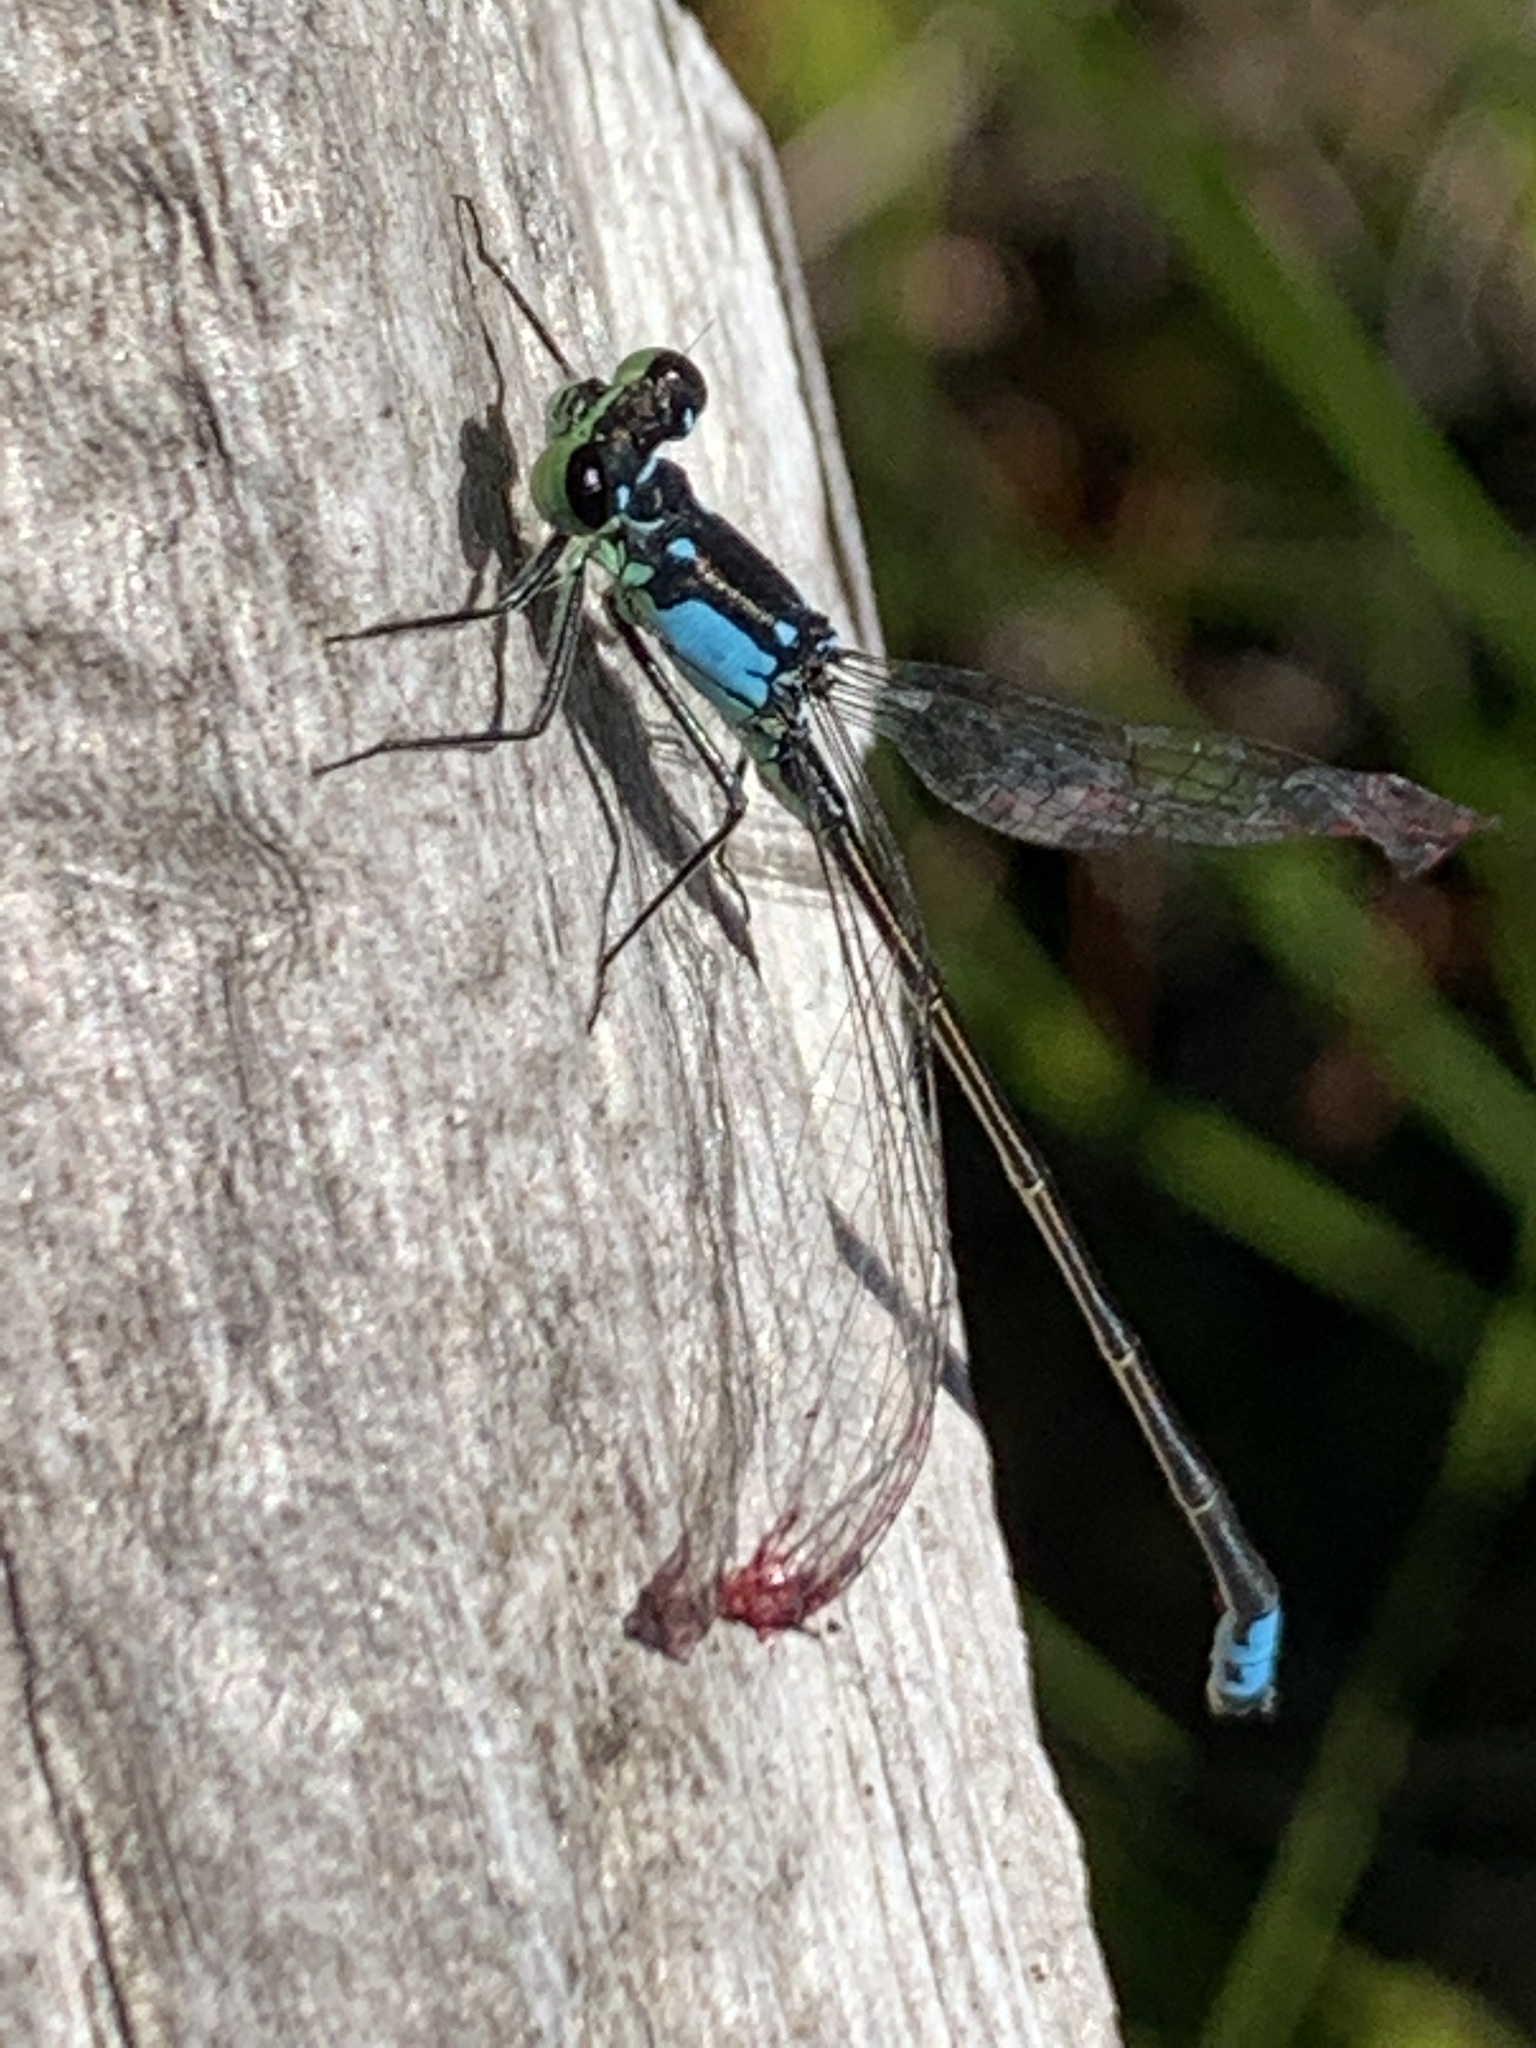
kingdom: Animalia
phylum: Arthropoda
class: Insecta
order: Odonata
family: Coenagrionidae
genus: Ischnura
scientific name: Ischnura cervula
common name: Pacific forktail
